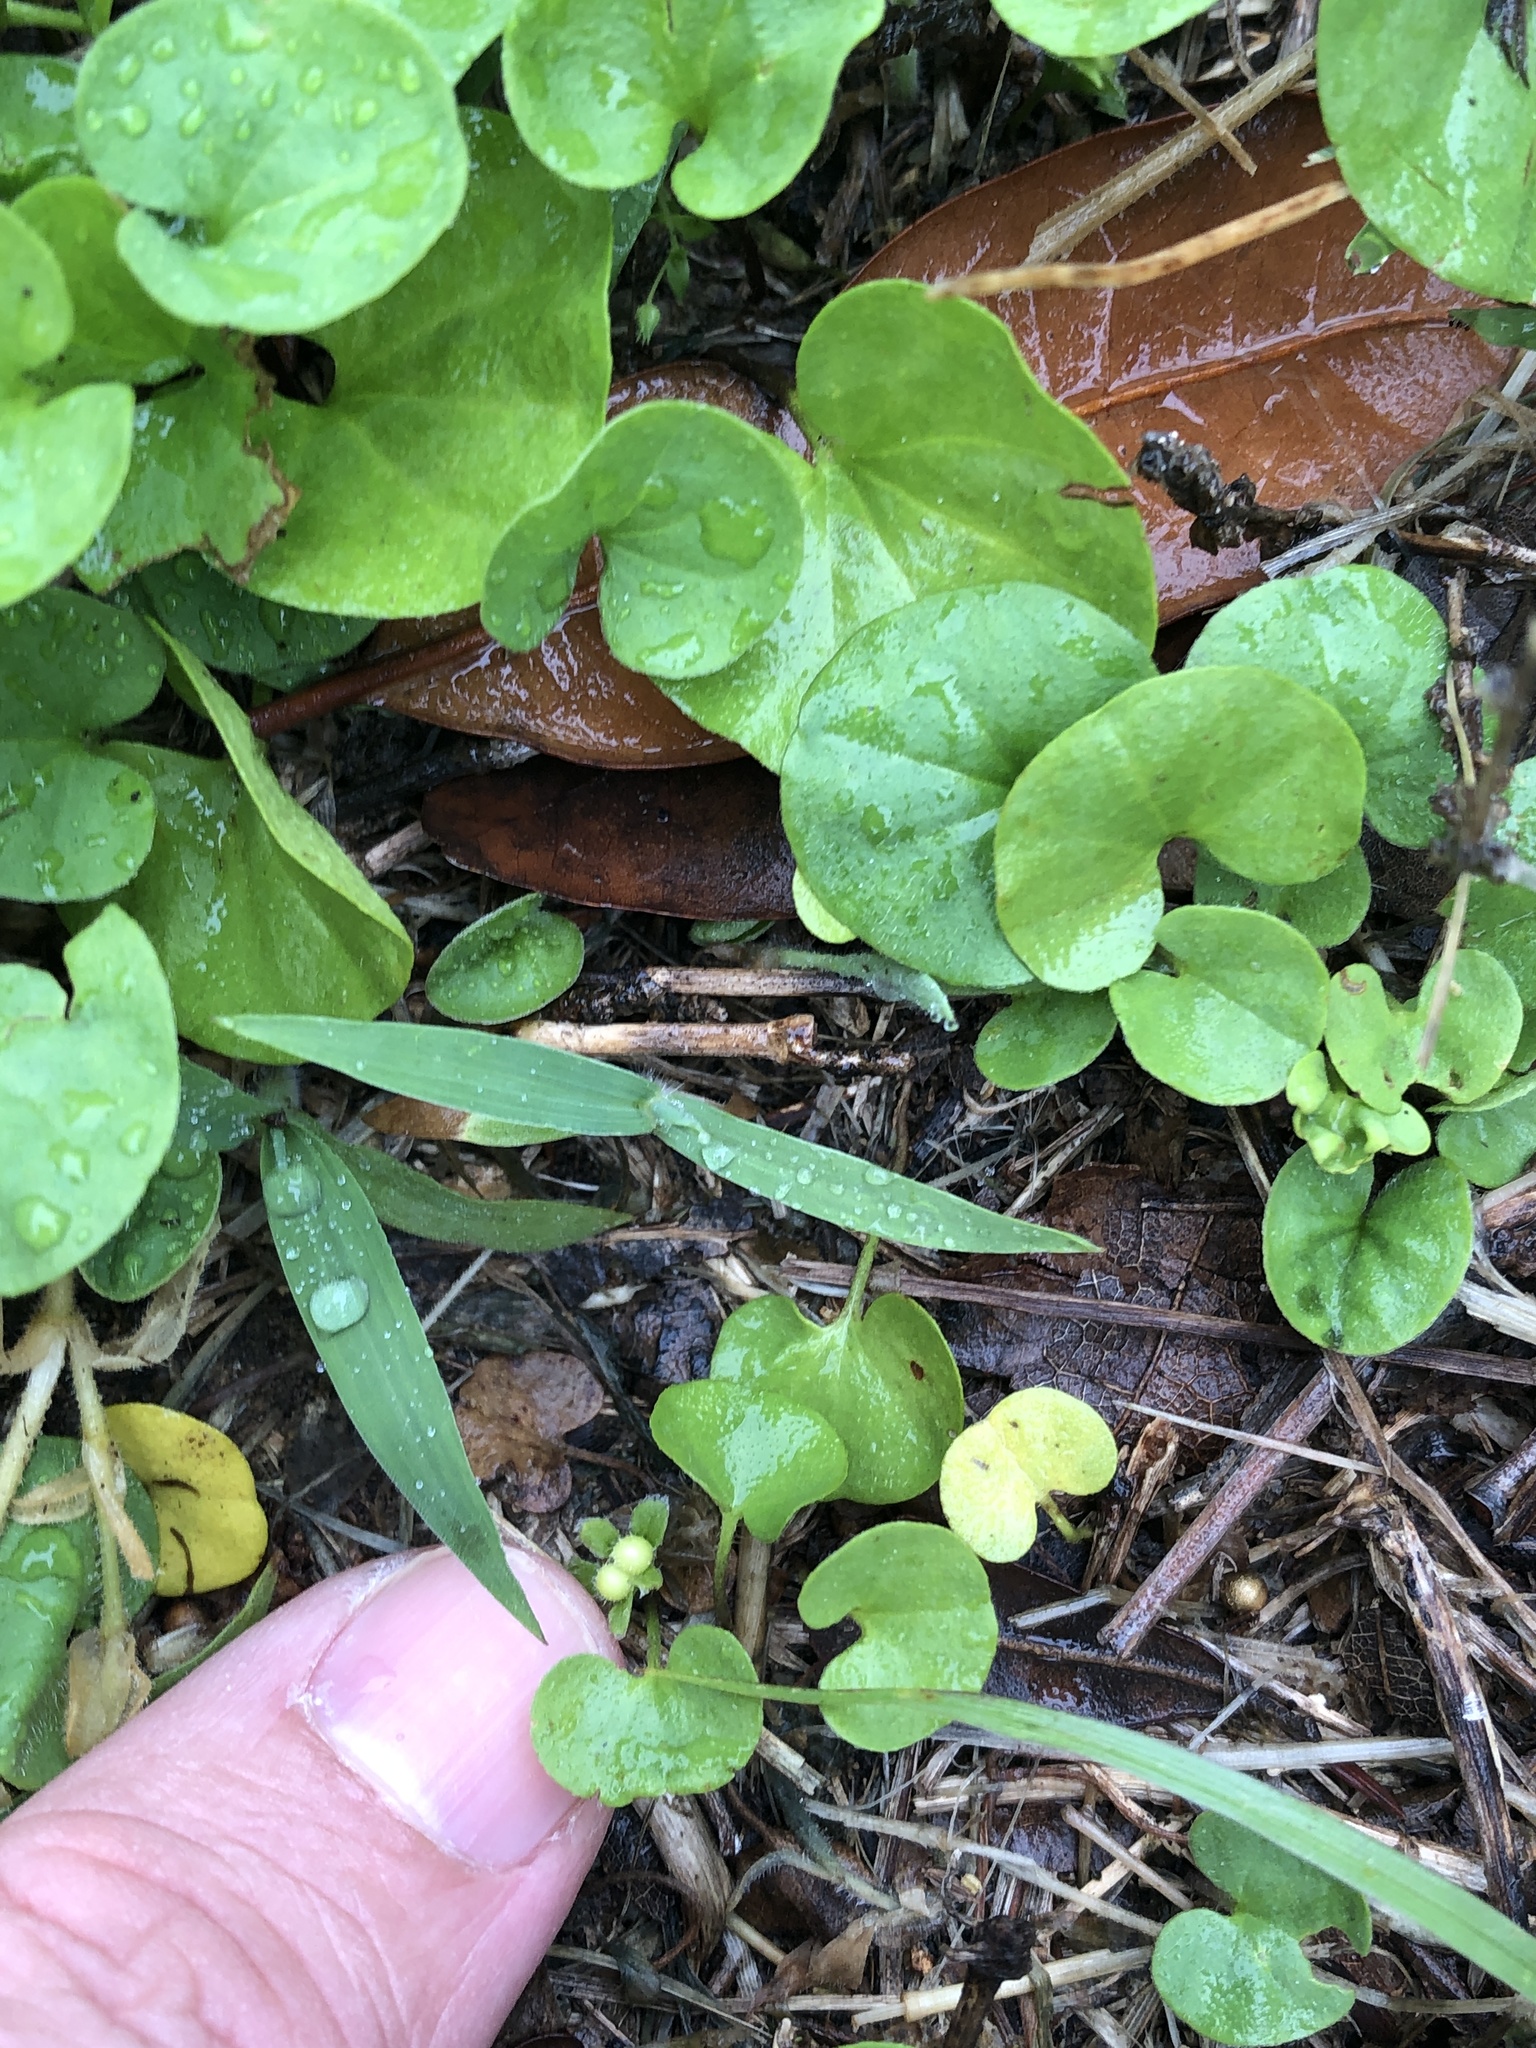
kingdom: Plantae
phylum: Tracheophyta
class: Magnoliopsida
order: Solanales
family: Convolvulaceae
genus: Dichondra
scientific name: Dichondra carolinensis
